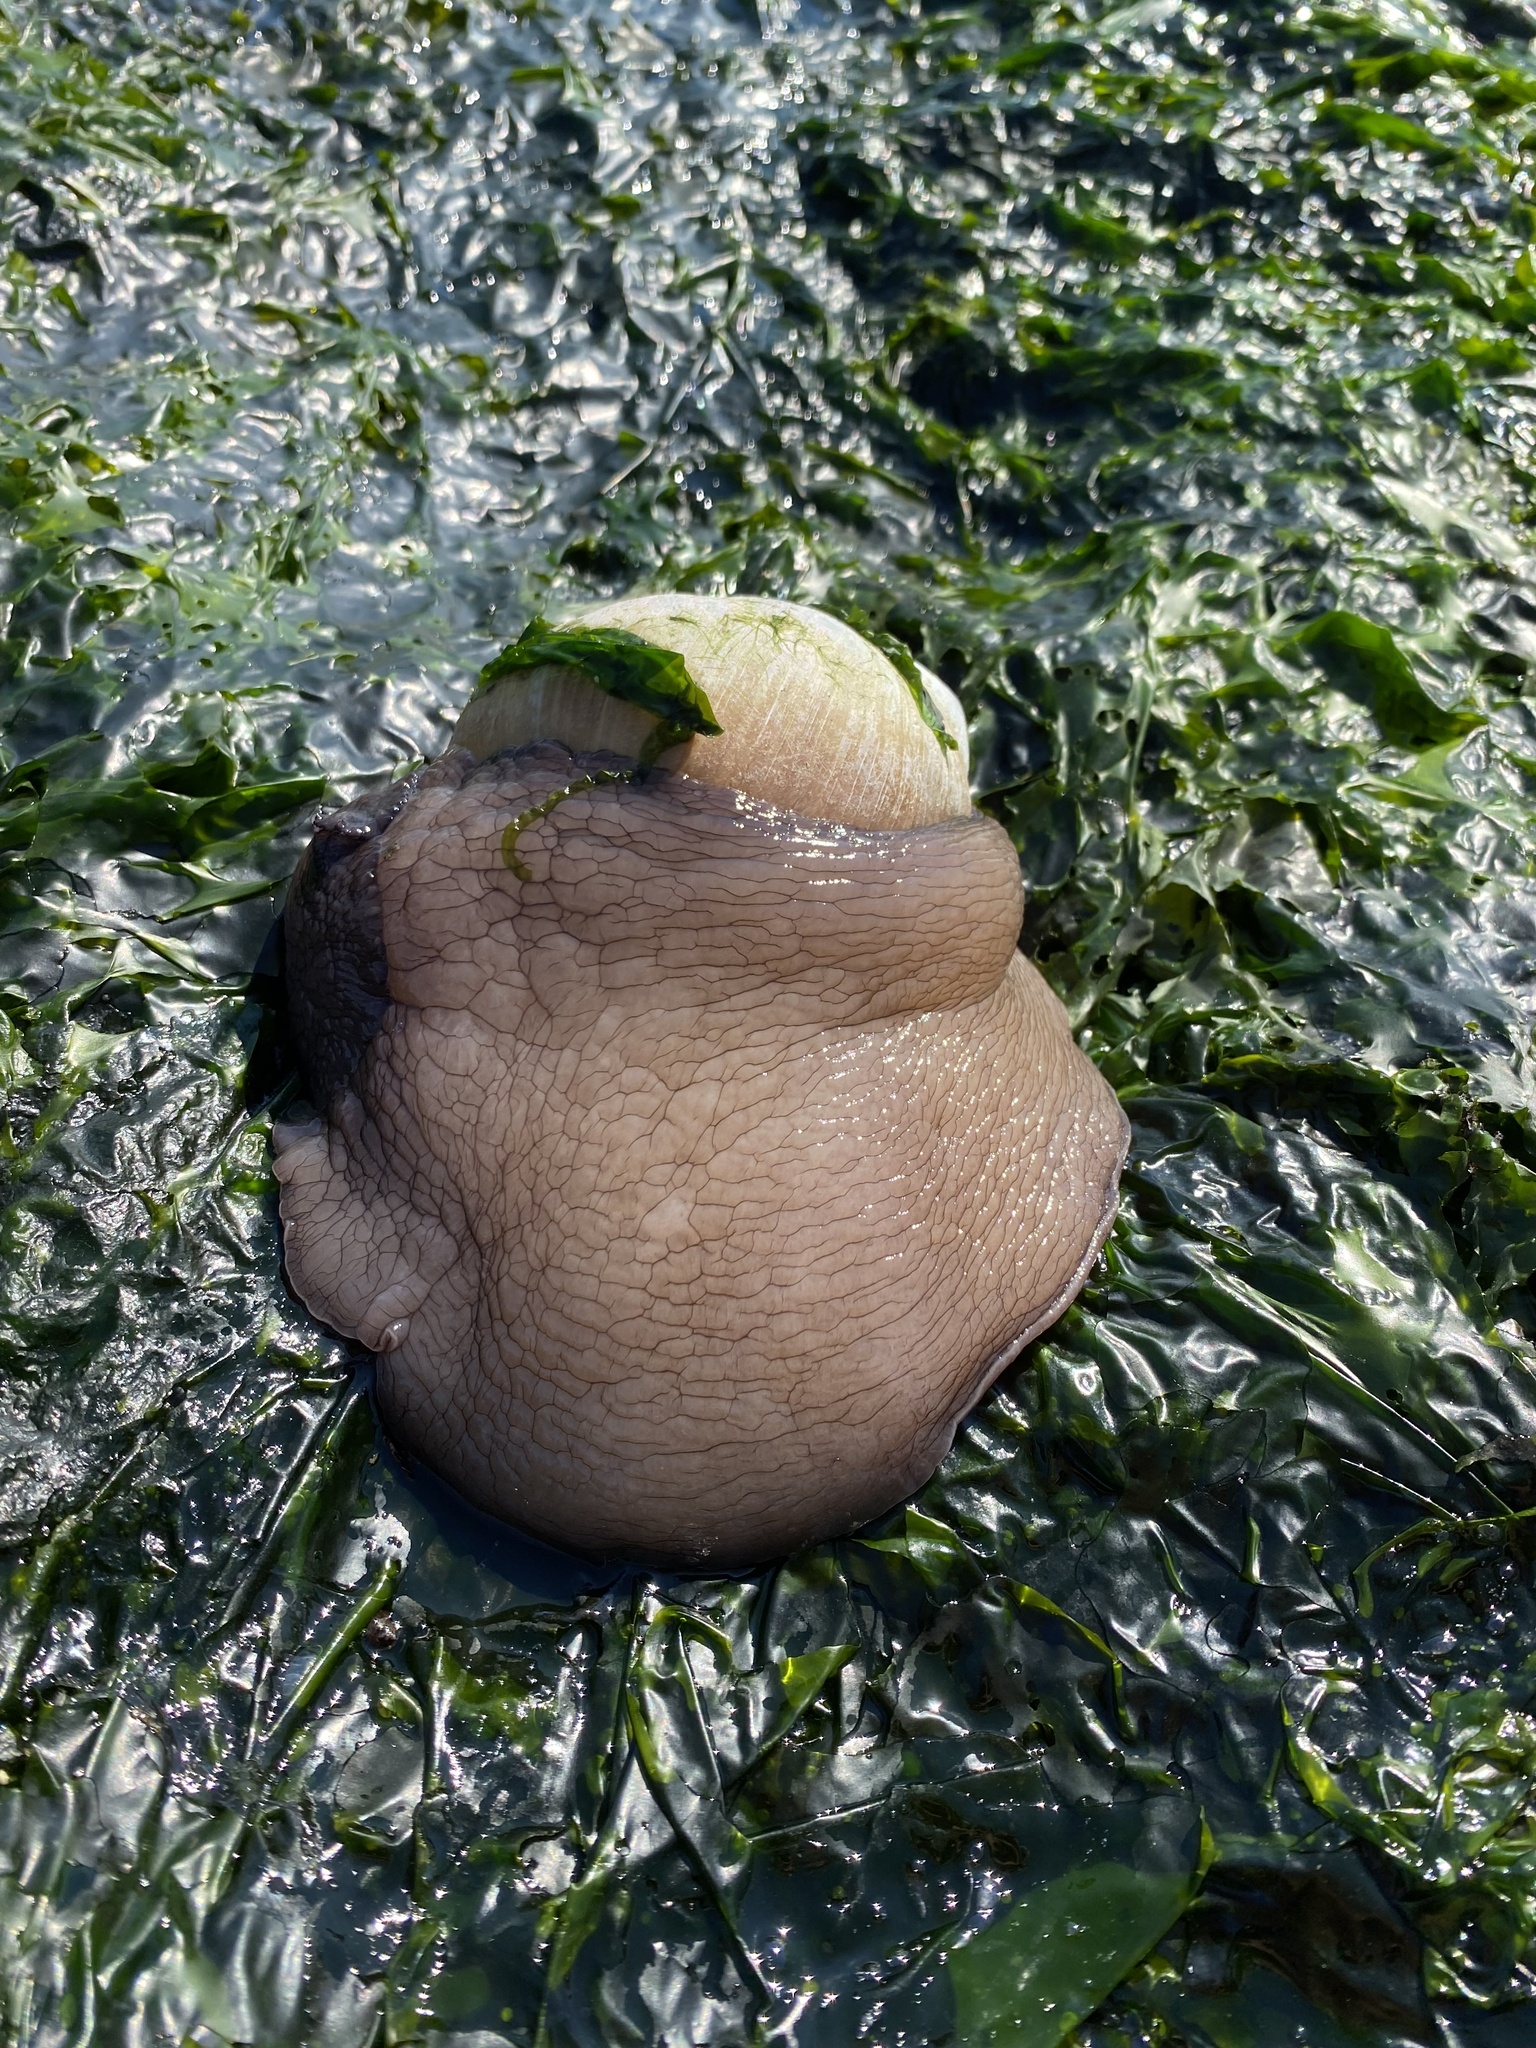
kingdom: Animalia
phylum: Mollusca
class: Gastropoda
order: Littorinimorpha
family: Naticidae
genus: Neverita
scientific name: Neverita lewisii
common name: Lewis' moonsnail
